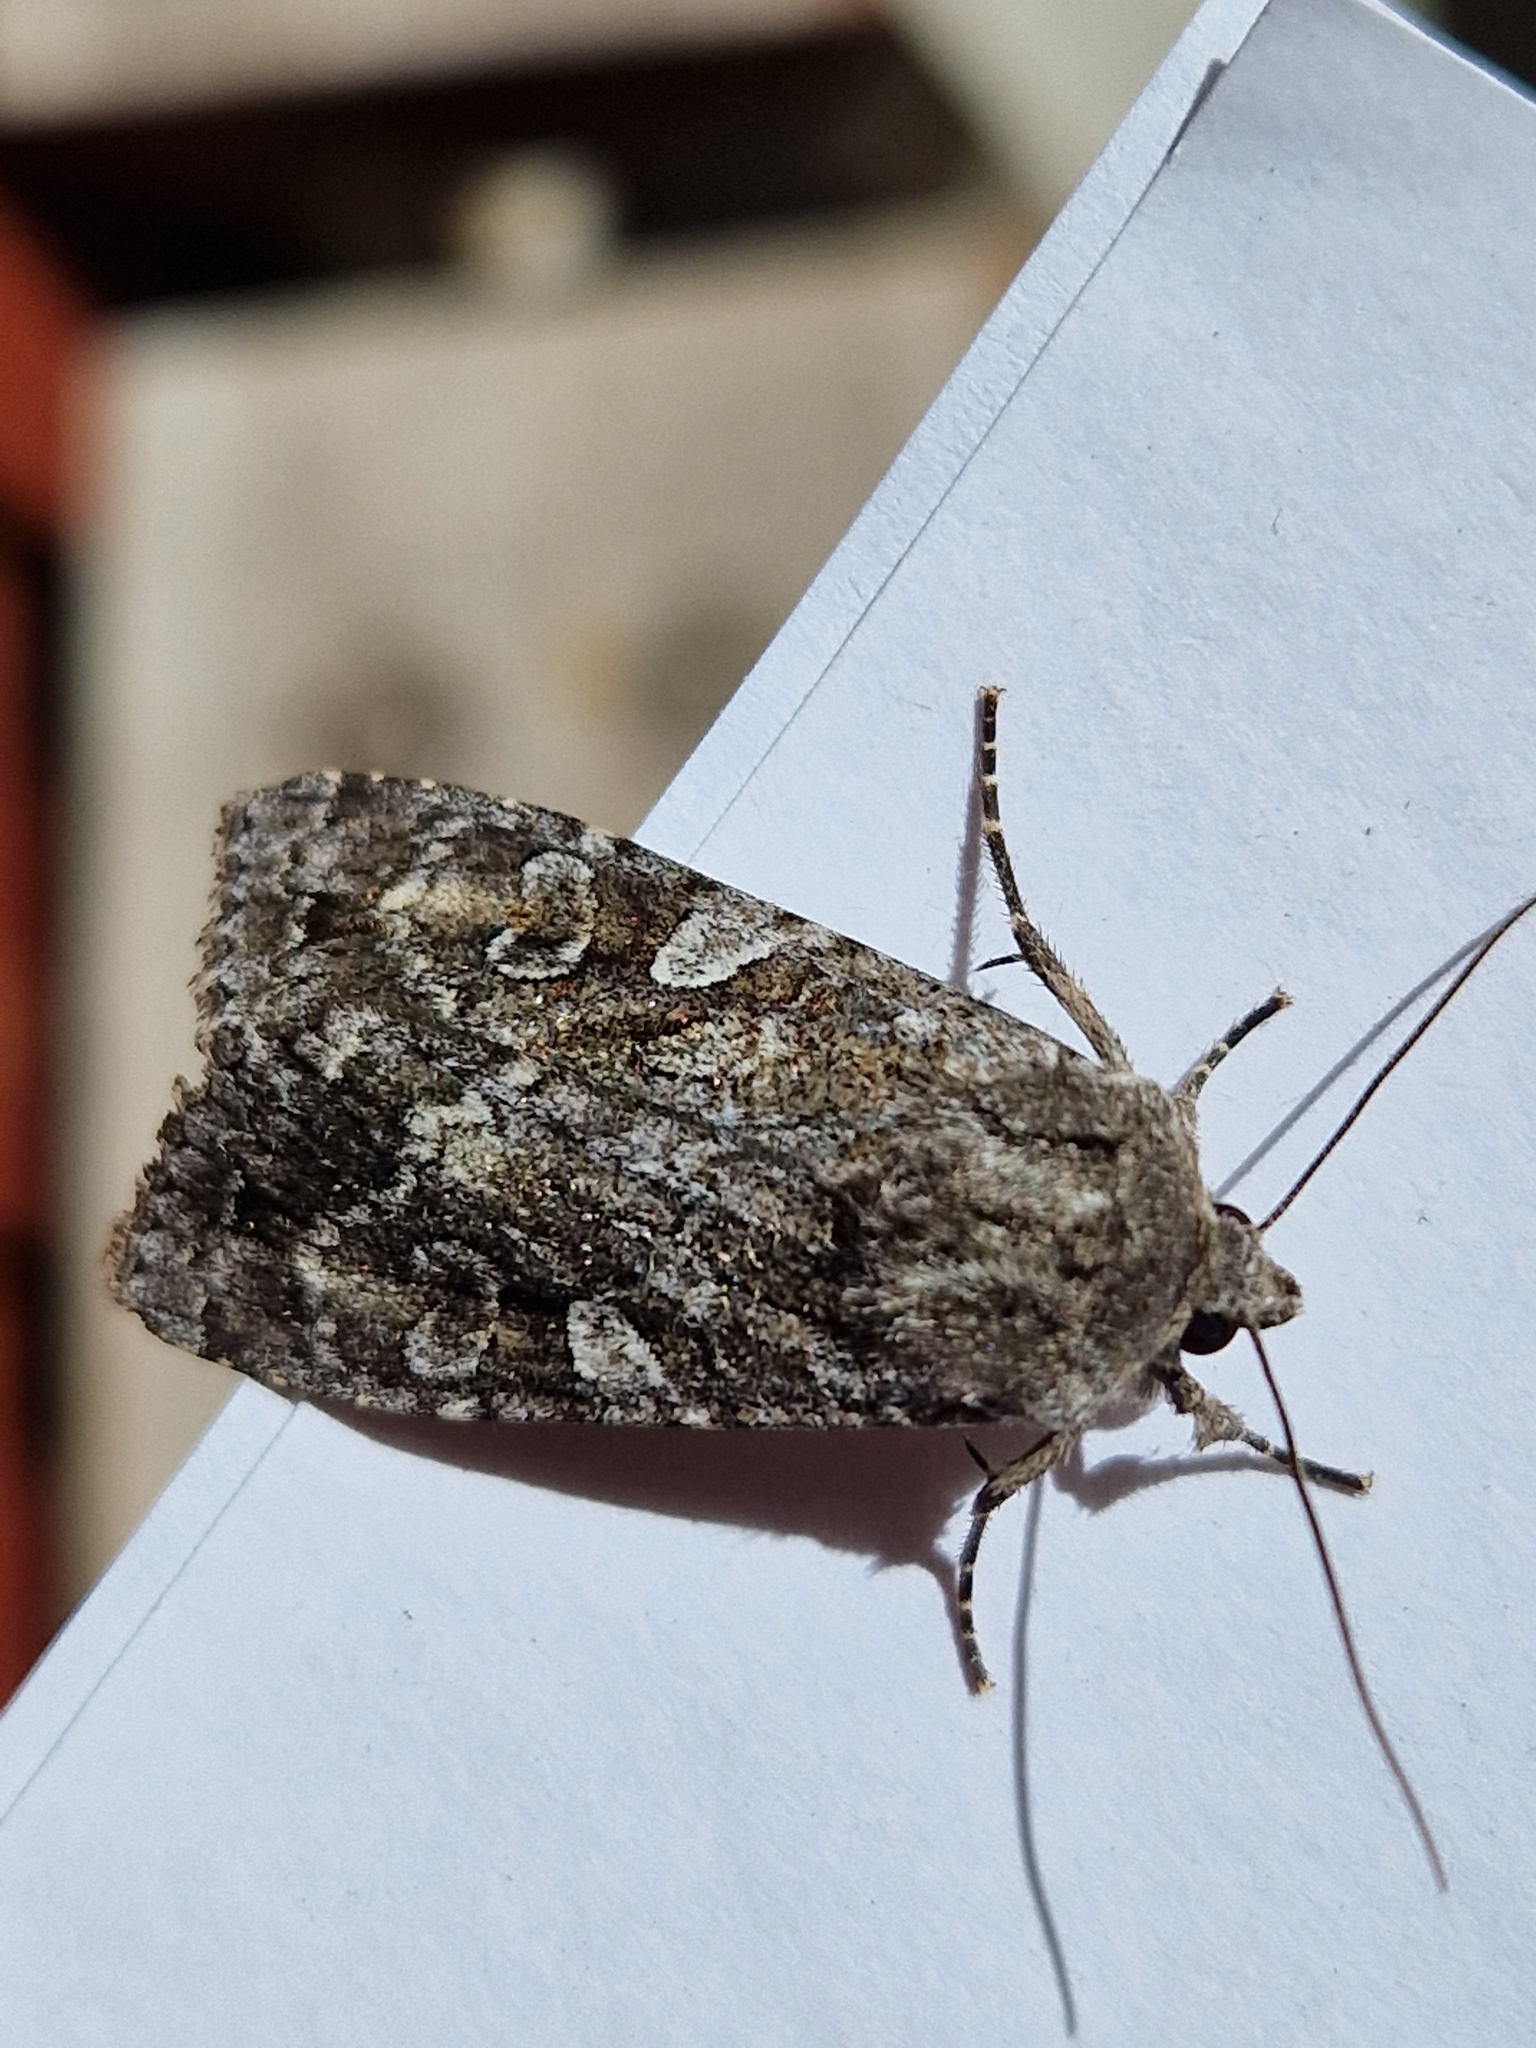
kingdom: Animalia
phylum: Arthropoda
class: Insecta
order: Lepidoptera
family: Noctuidae
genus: Eurois
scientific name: Eurois occulta
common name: Great brocade
